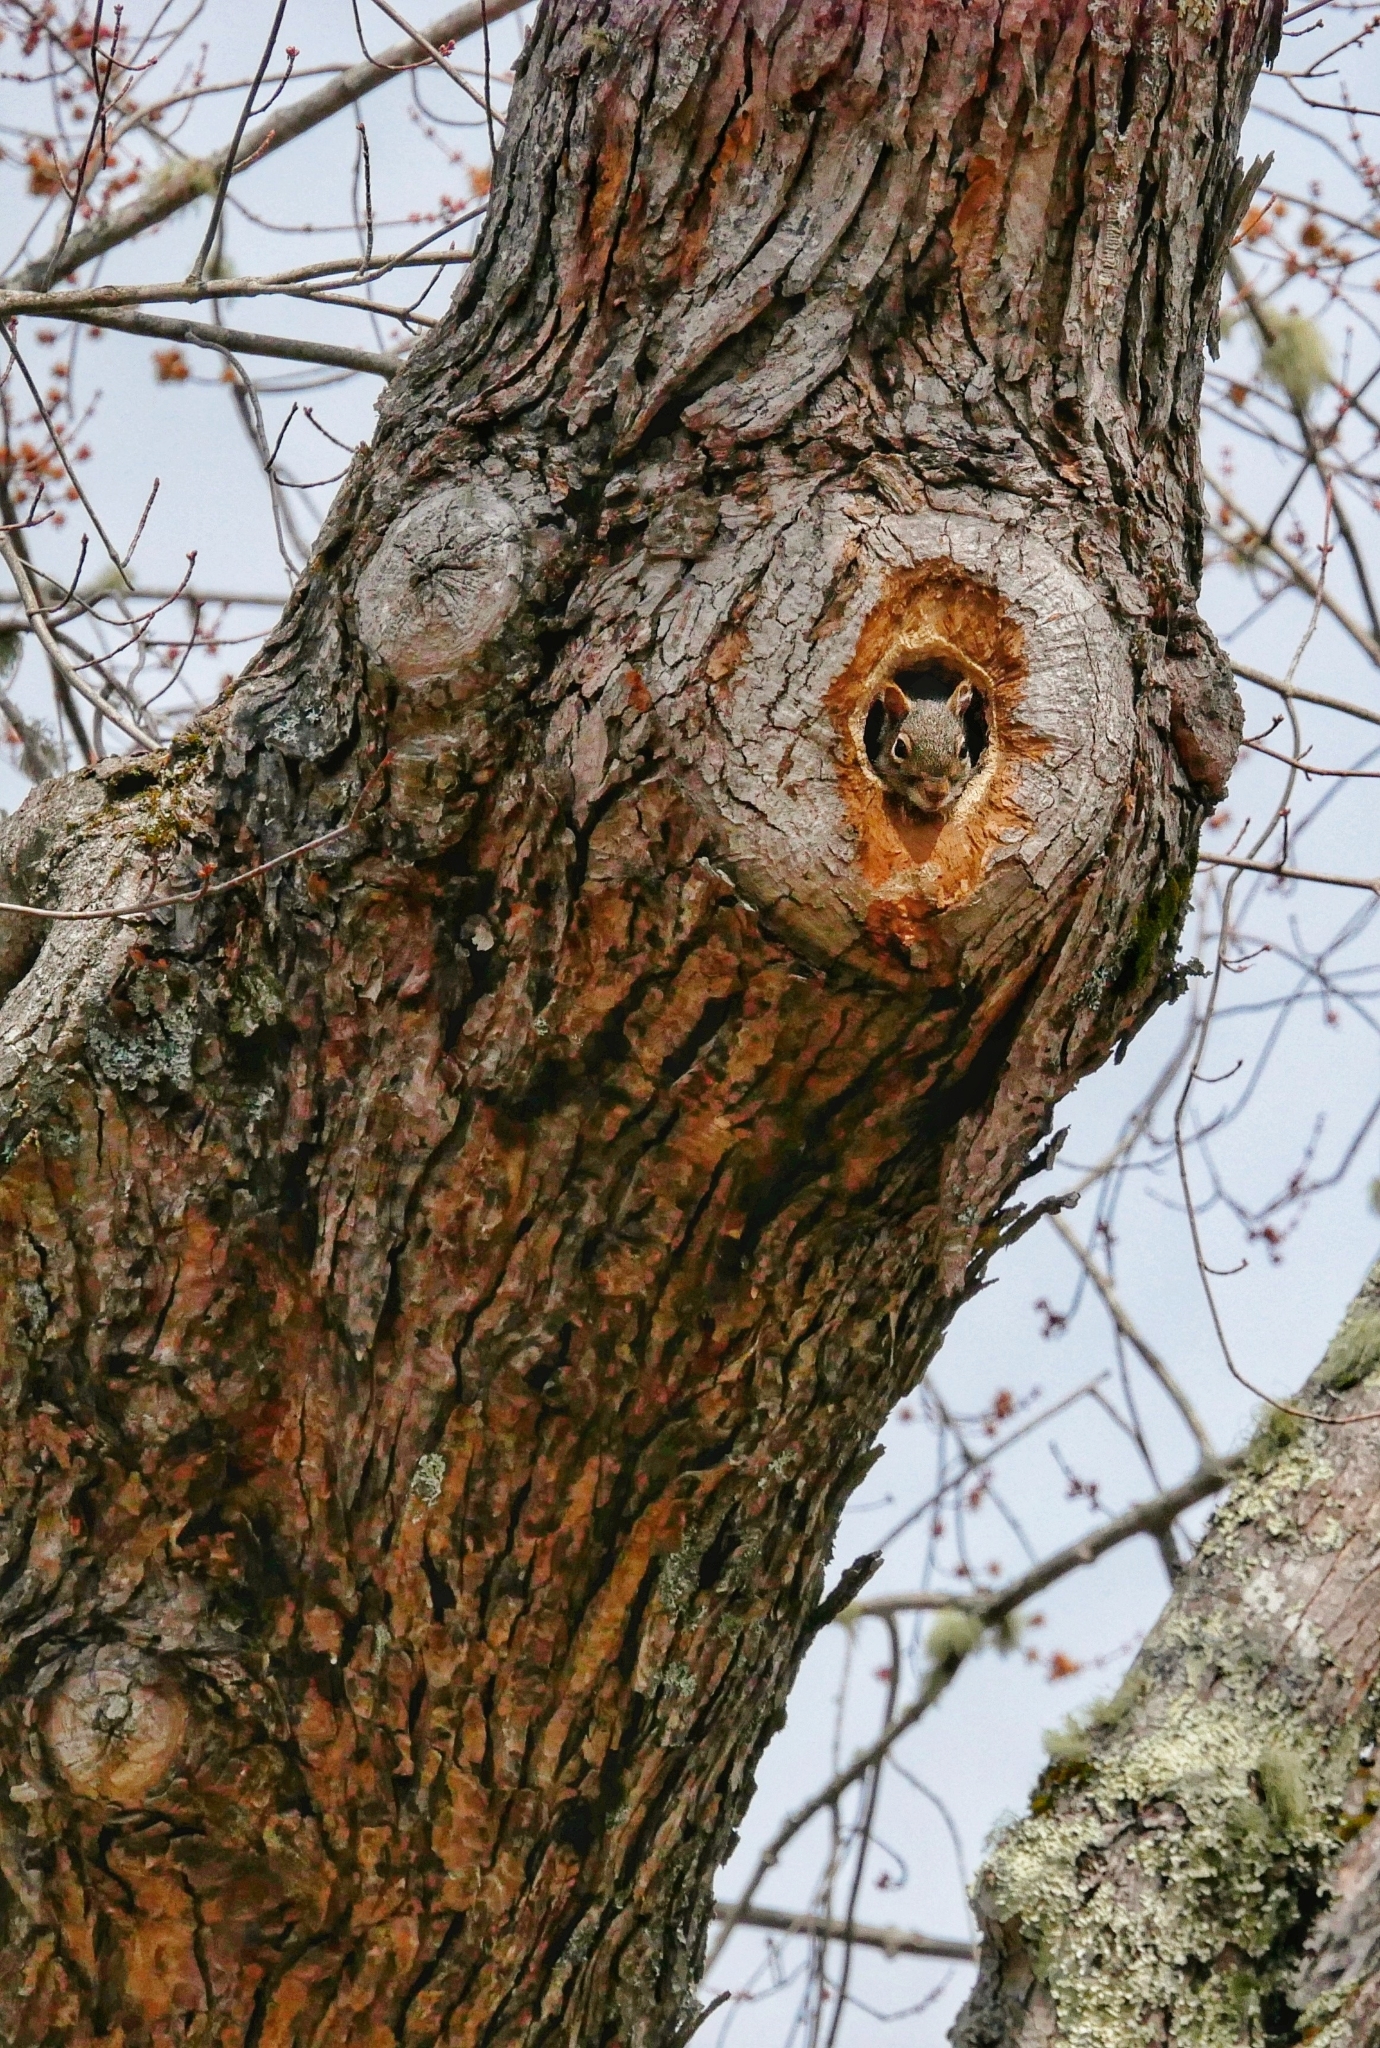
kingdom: Animalia
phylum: Chordata
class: Mammalia
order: Rodentia
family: Sciuridae
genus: Sciurus
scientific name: Sciurus carolinensis
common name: Eastern gray squirrel
